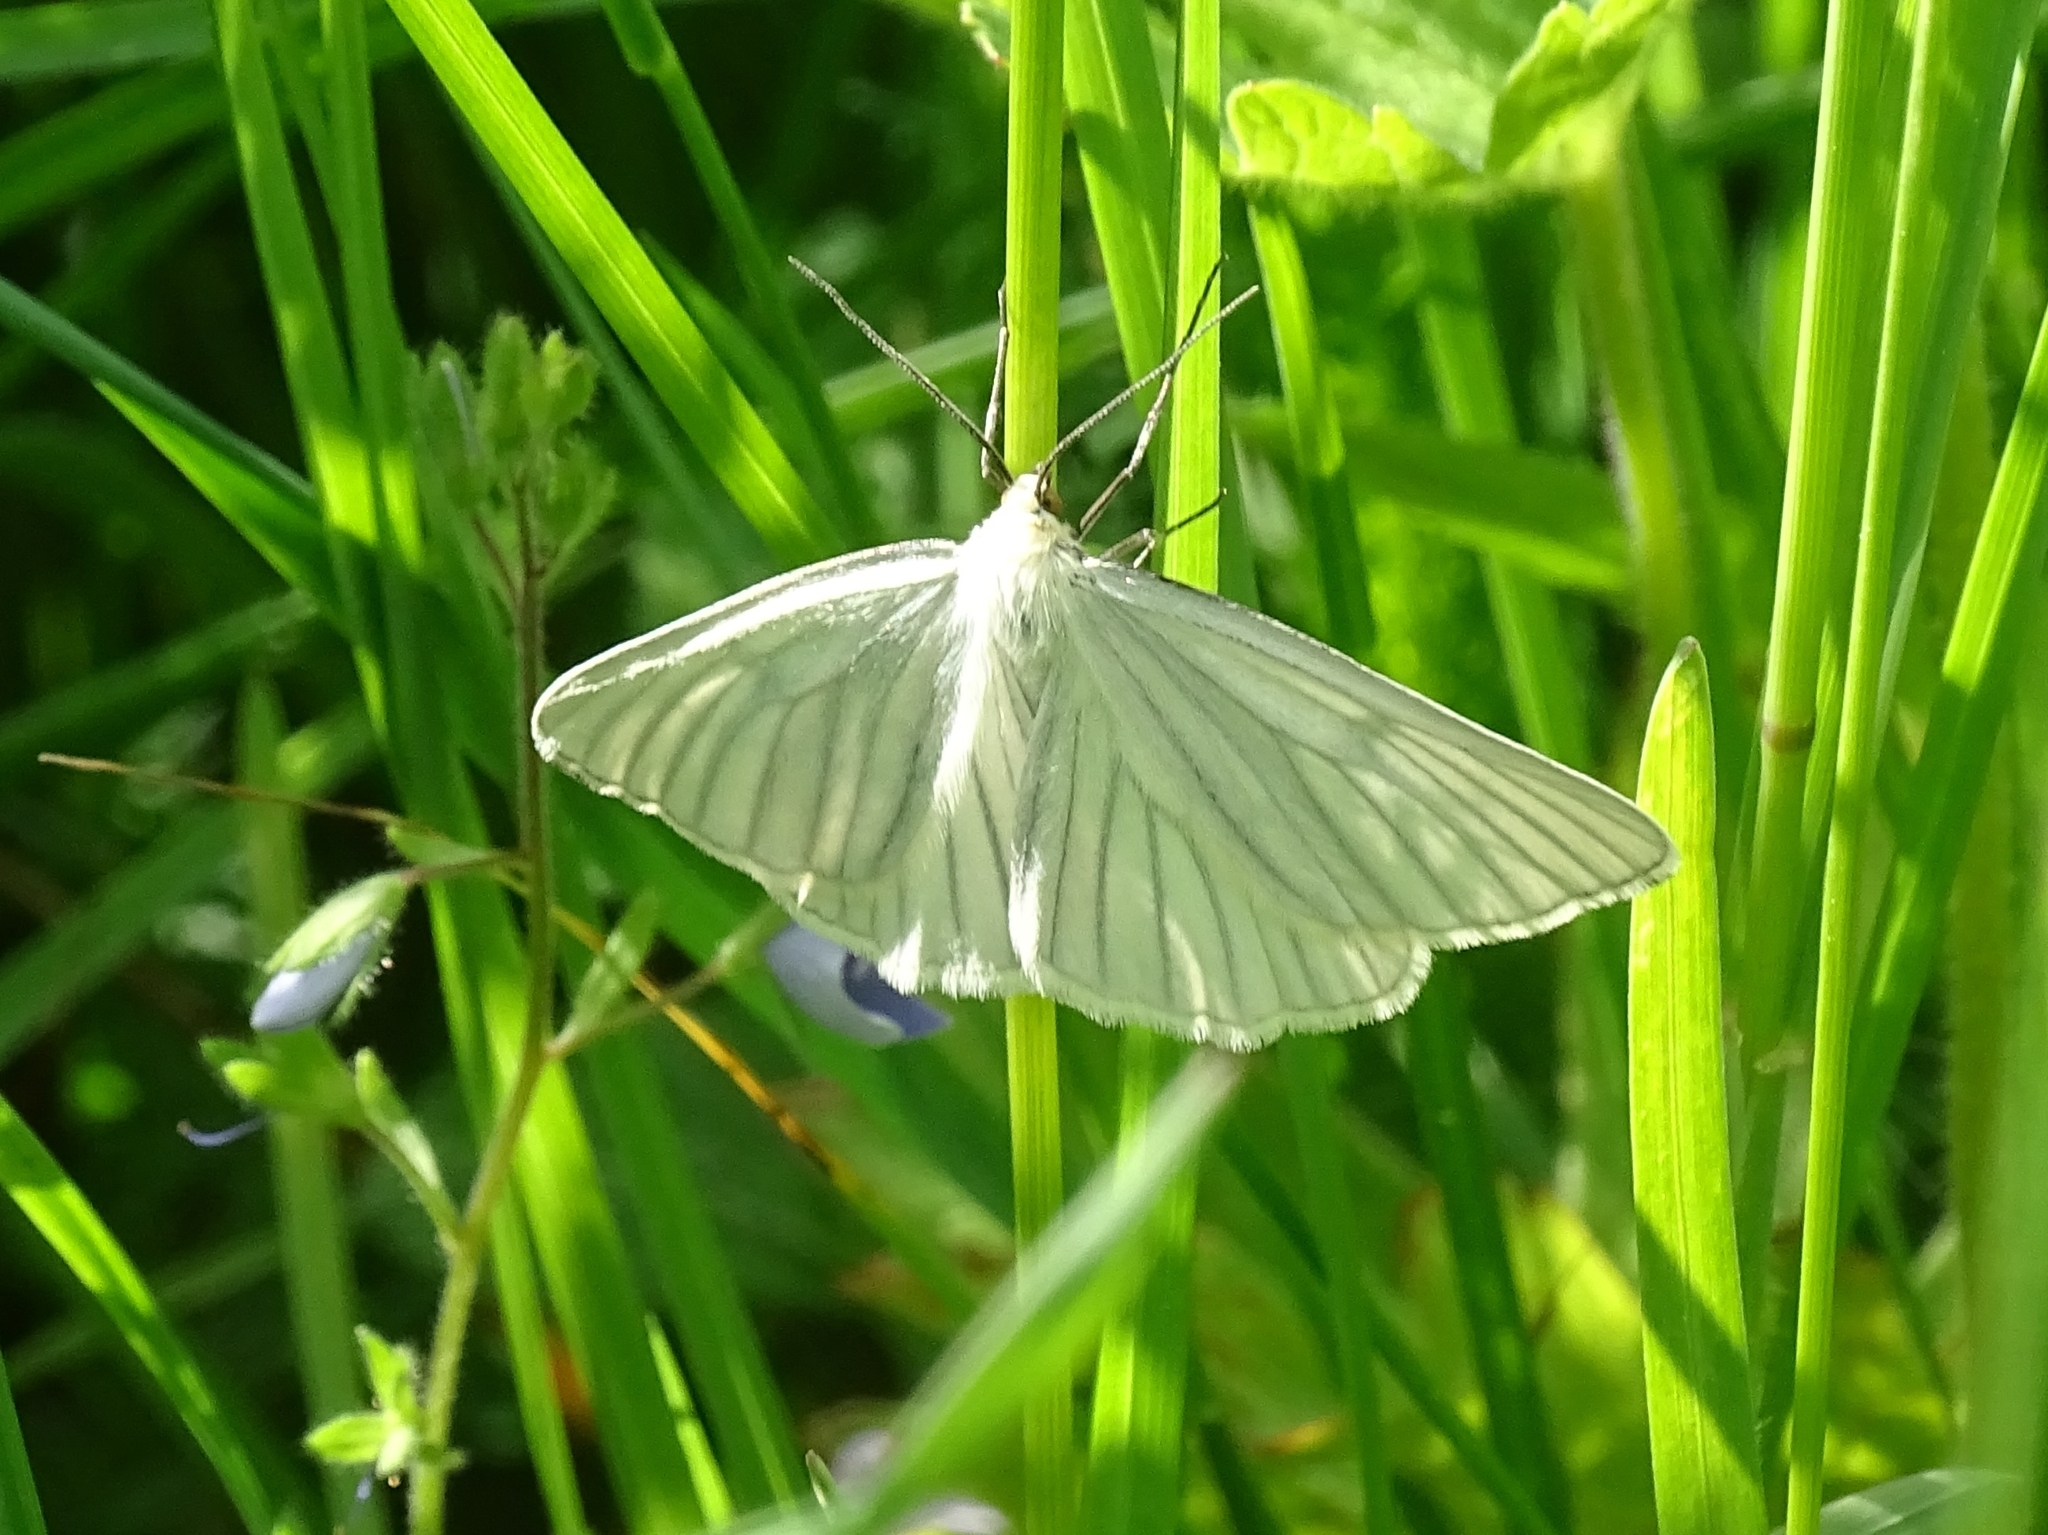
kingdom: Animalia
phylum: Arthropoda
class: Insecta
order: Lepidoptera
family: Geometridae
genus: Siona
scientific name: Siona lineata
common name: Black-veined moth
